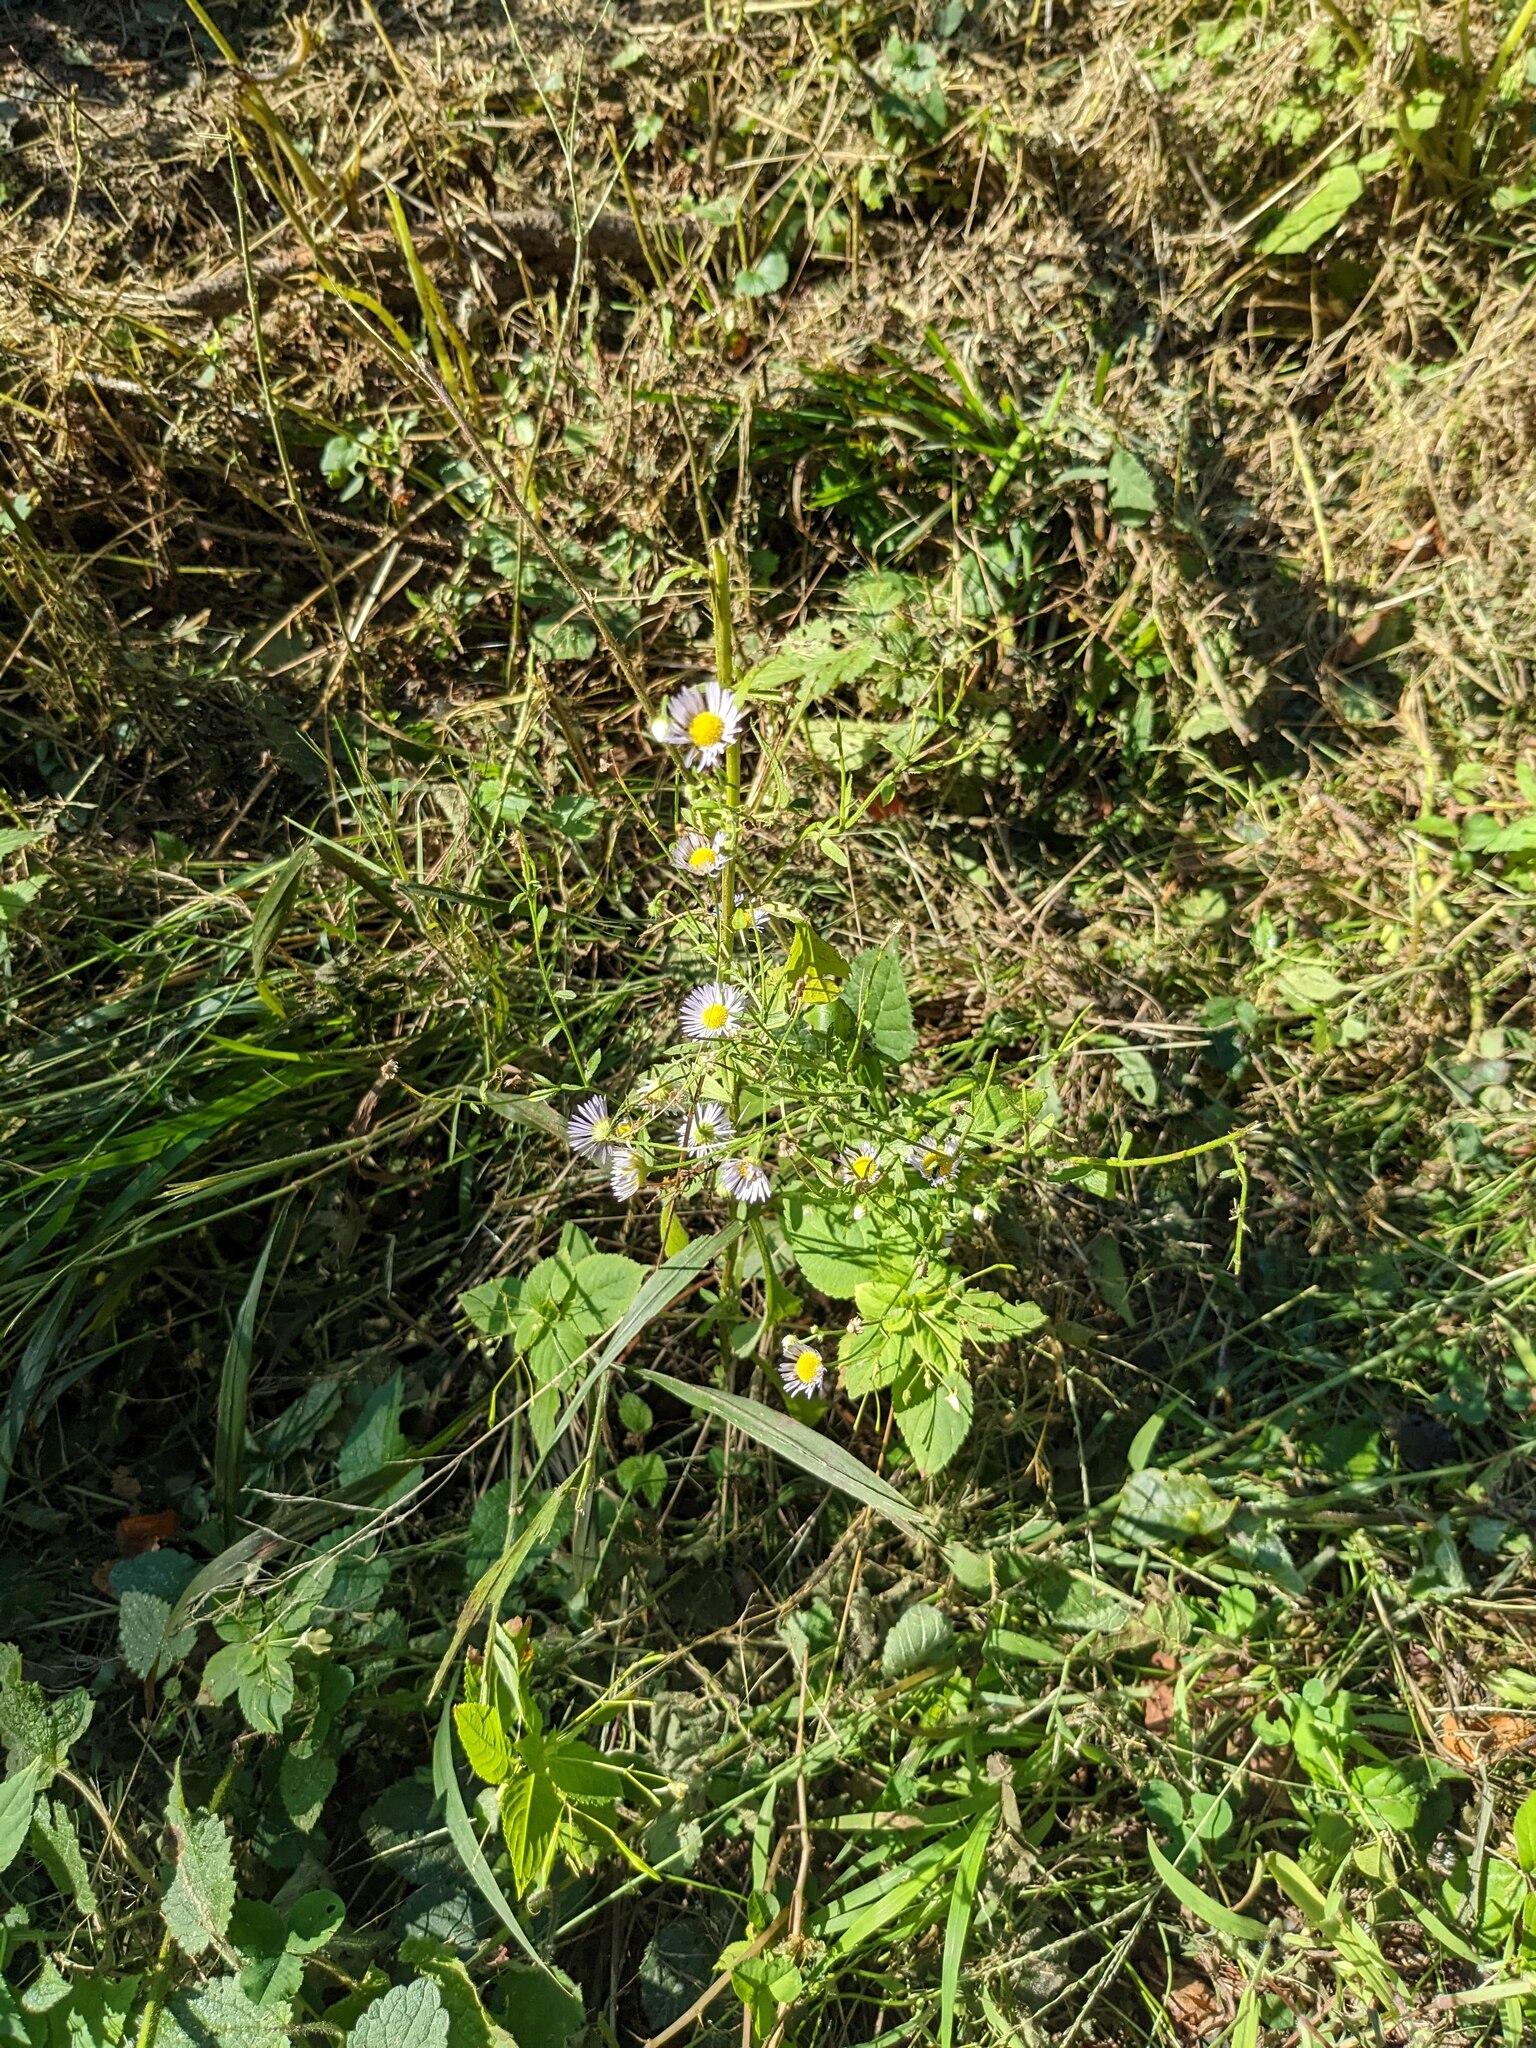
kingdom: Plantae
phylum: Tracheophyta
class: Magnoliopsida
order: Asterales
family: Asteraceae
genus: Erigeron
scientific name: Erigeron annuus
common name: Tall fleabane
